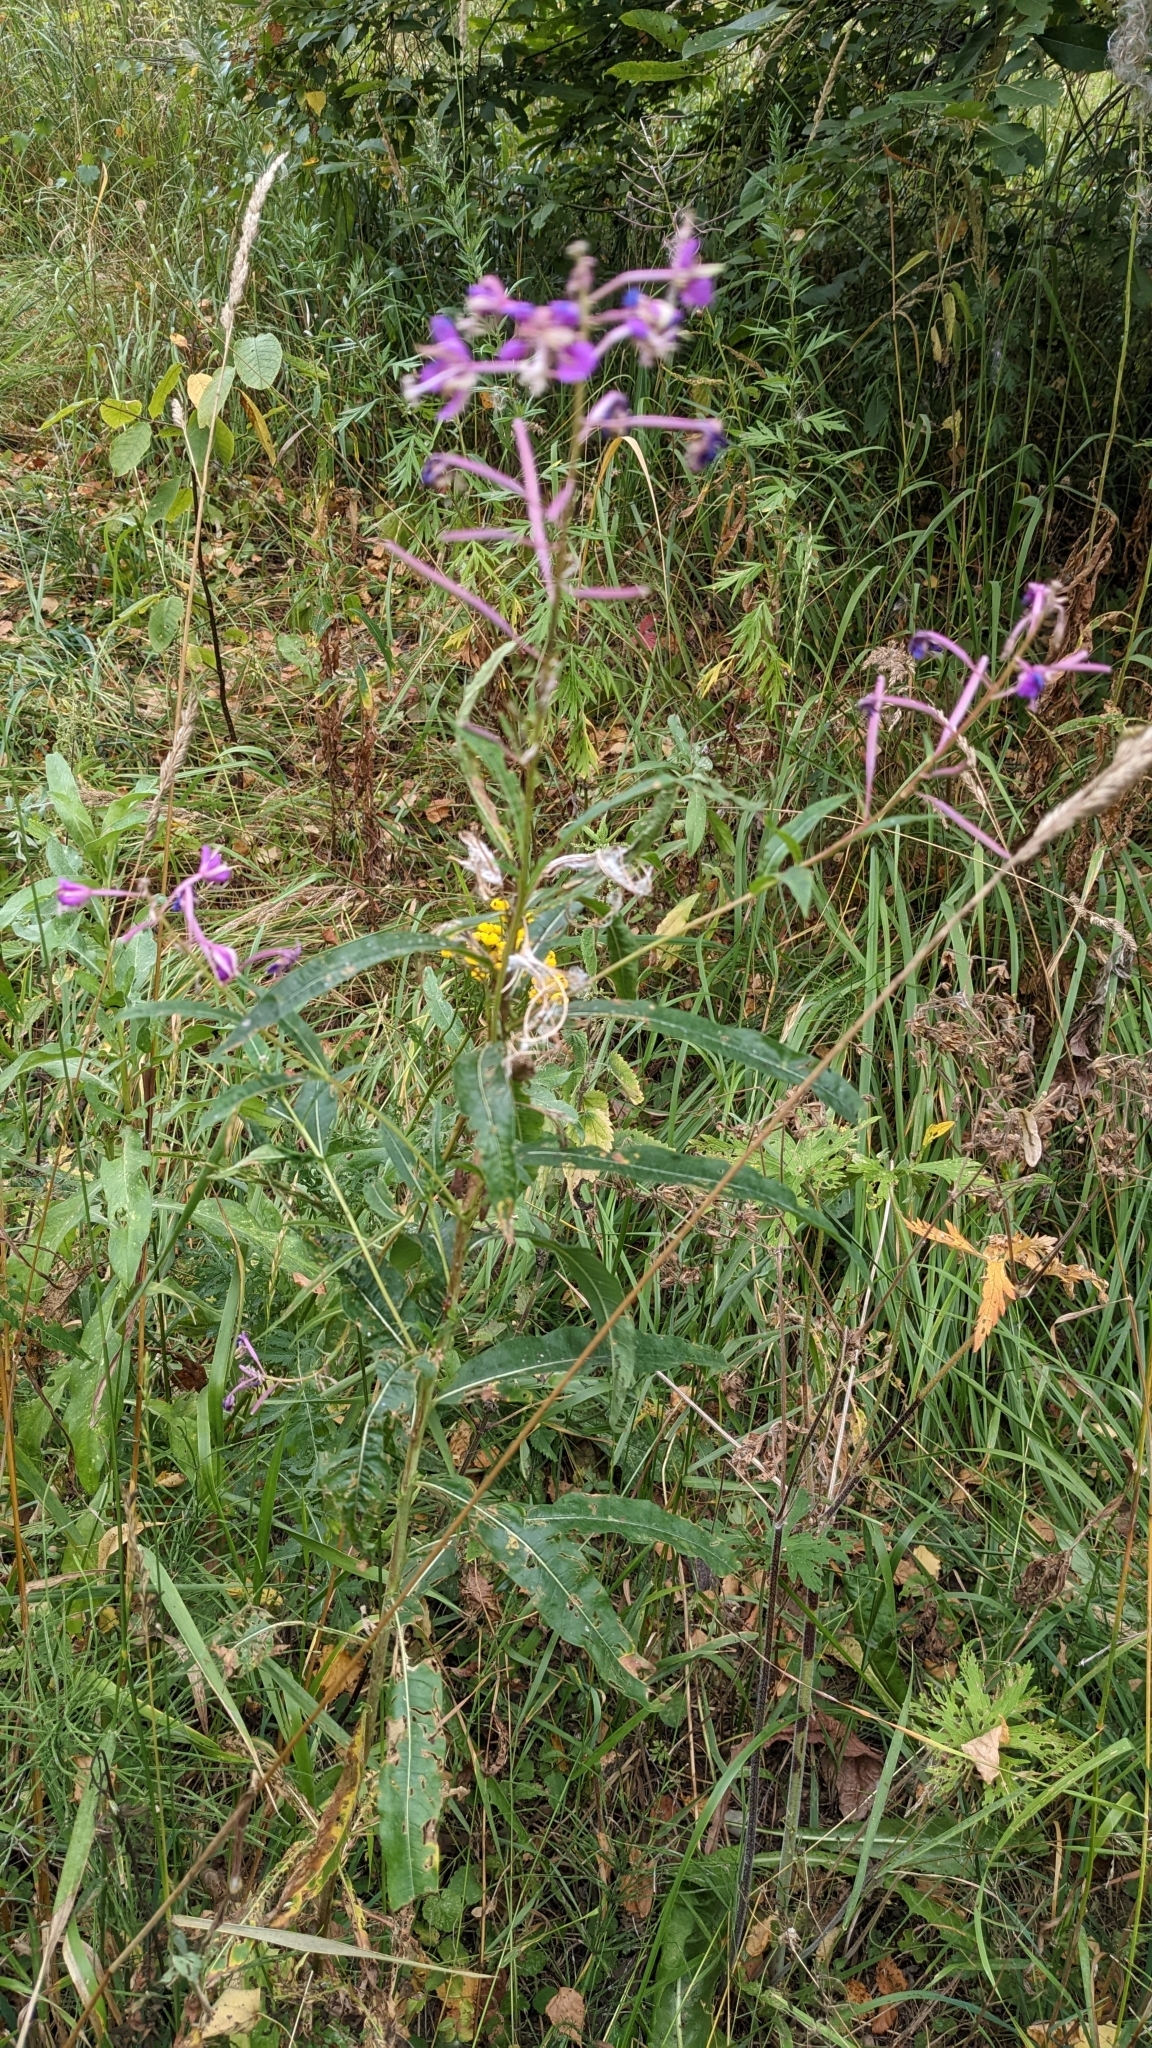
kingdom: Plantae
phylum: Tracheophyta
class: Magnoliopsida
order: Myrtales
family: Onagraceae
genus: Chamaenerion
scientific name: Chamaenerion angustifolium
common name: Fireweed
